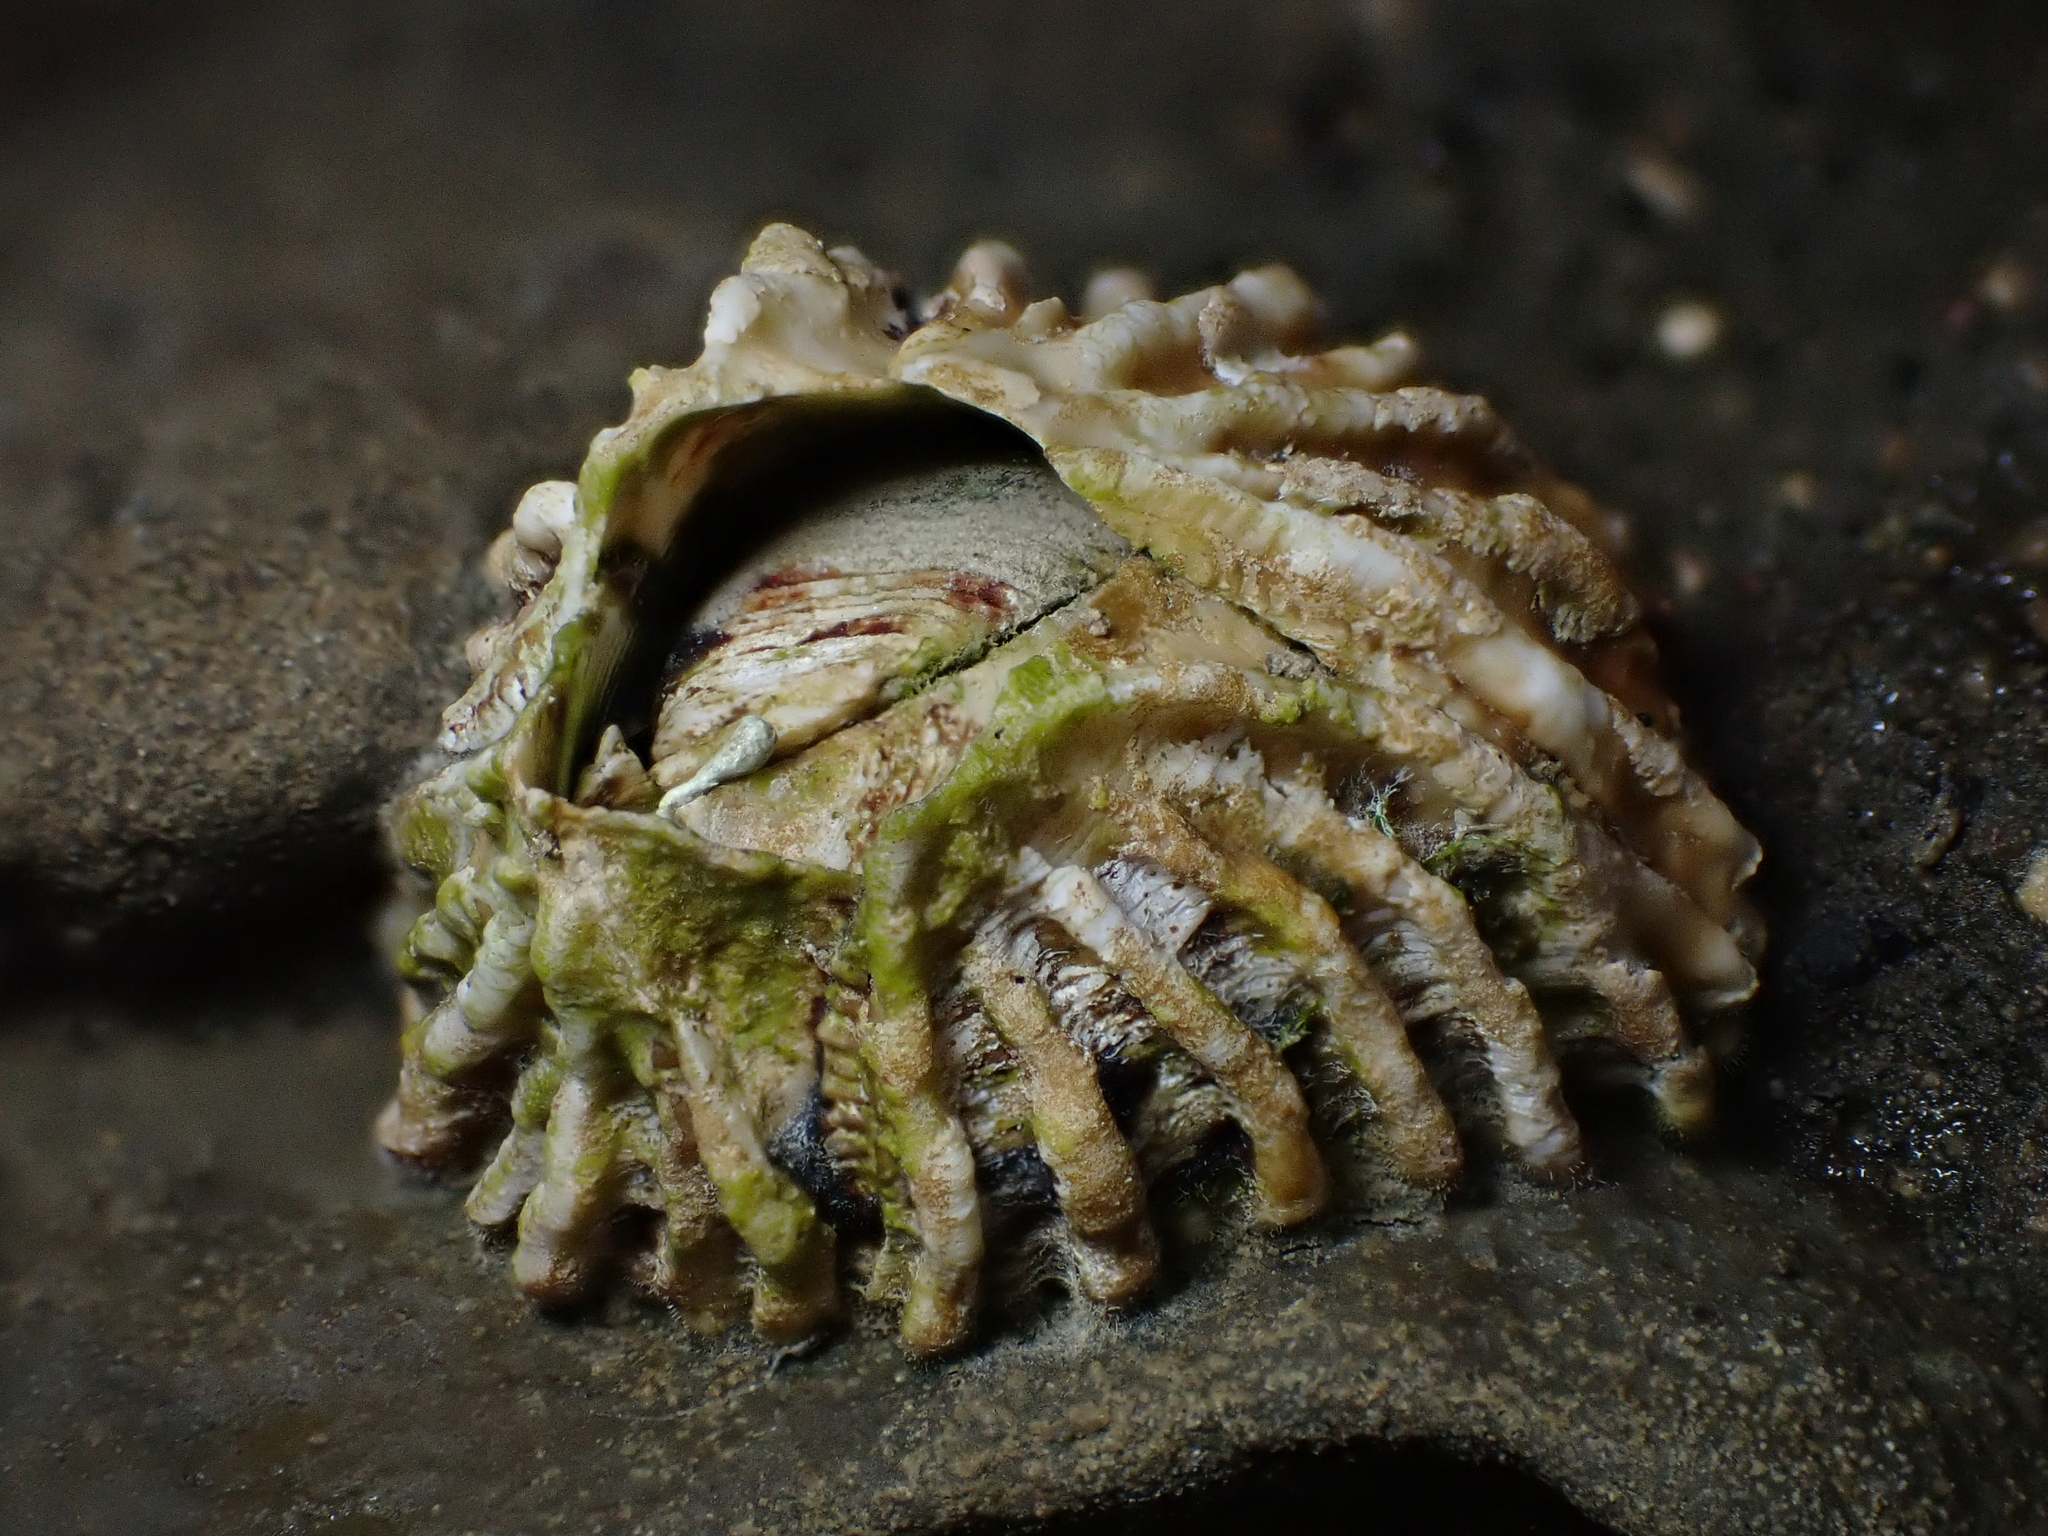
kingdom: Animalia
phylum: Arthropoda
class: Maxillopoda
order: Sessilia
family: Tetraclitidae
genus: Epopella
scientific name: Epopella plicata
